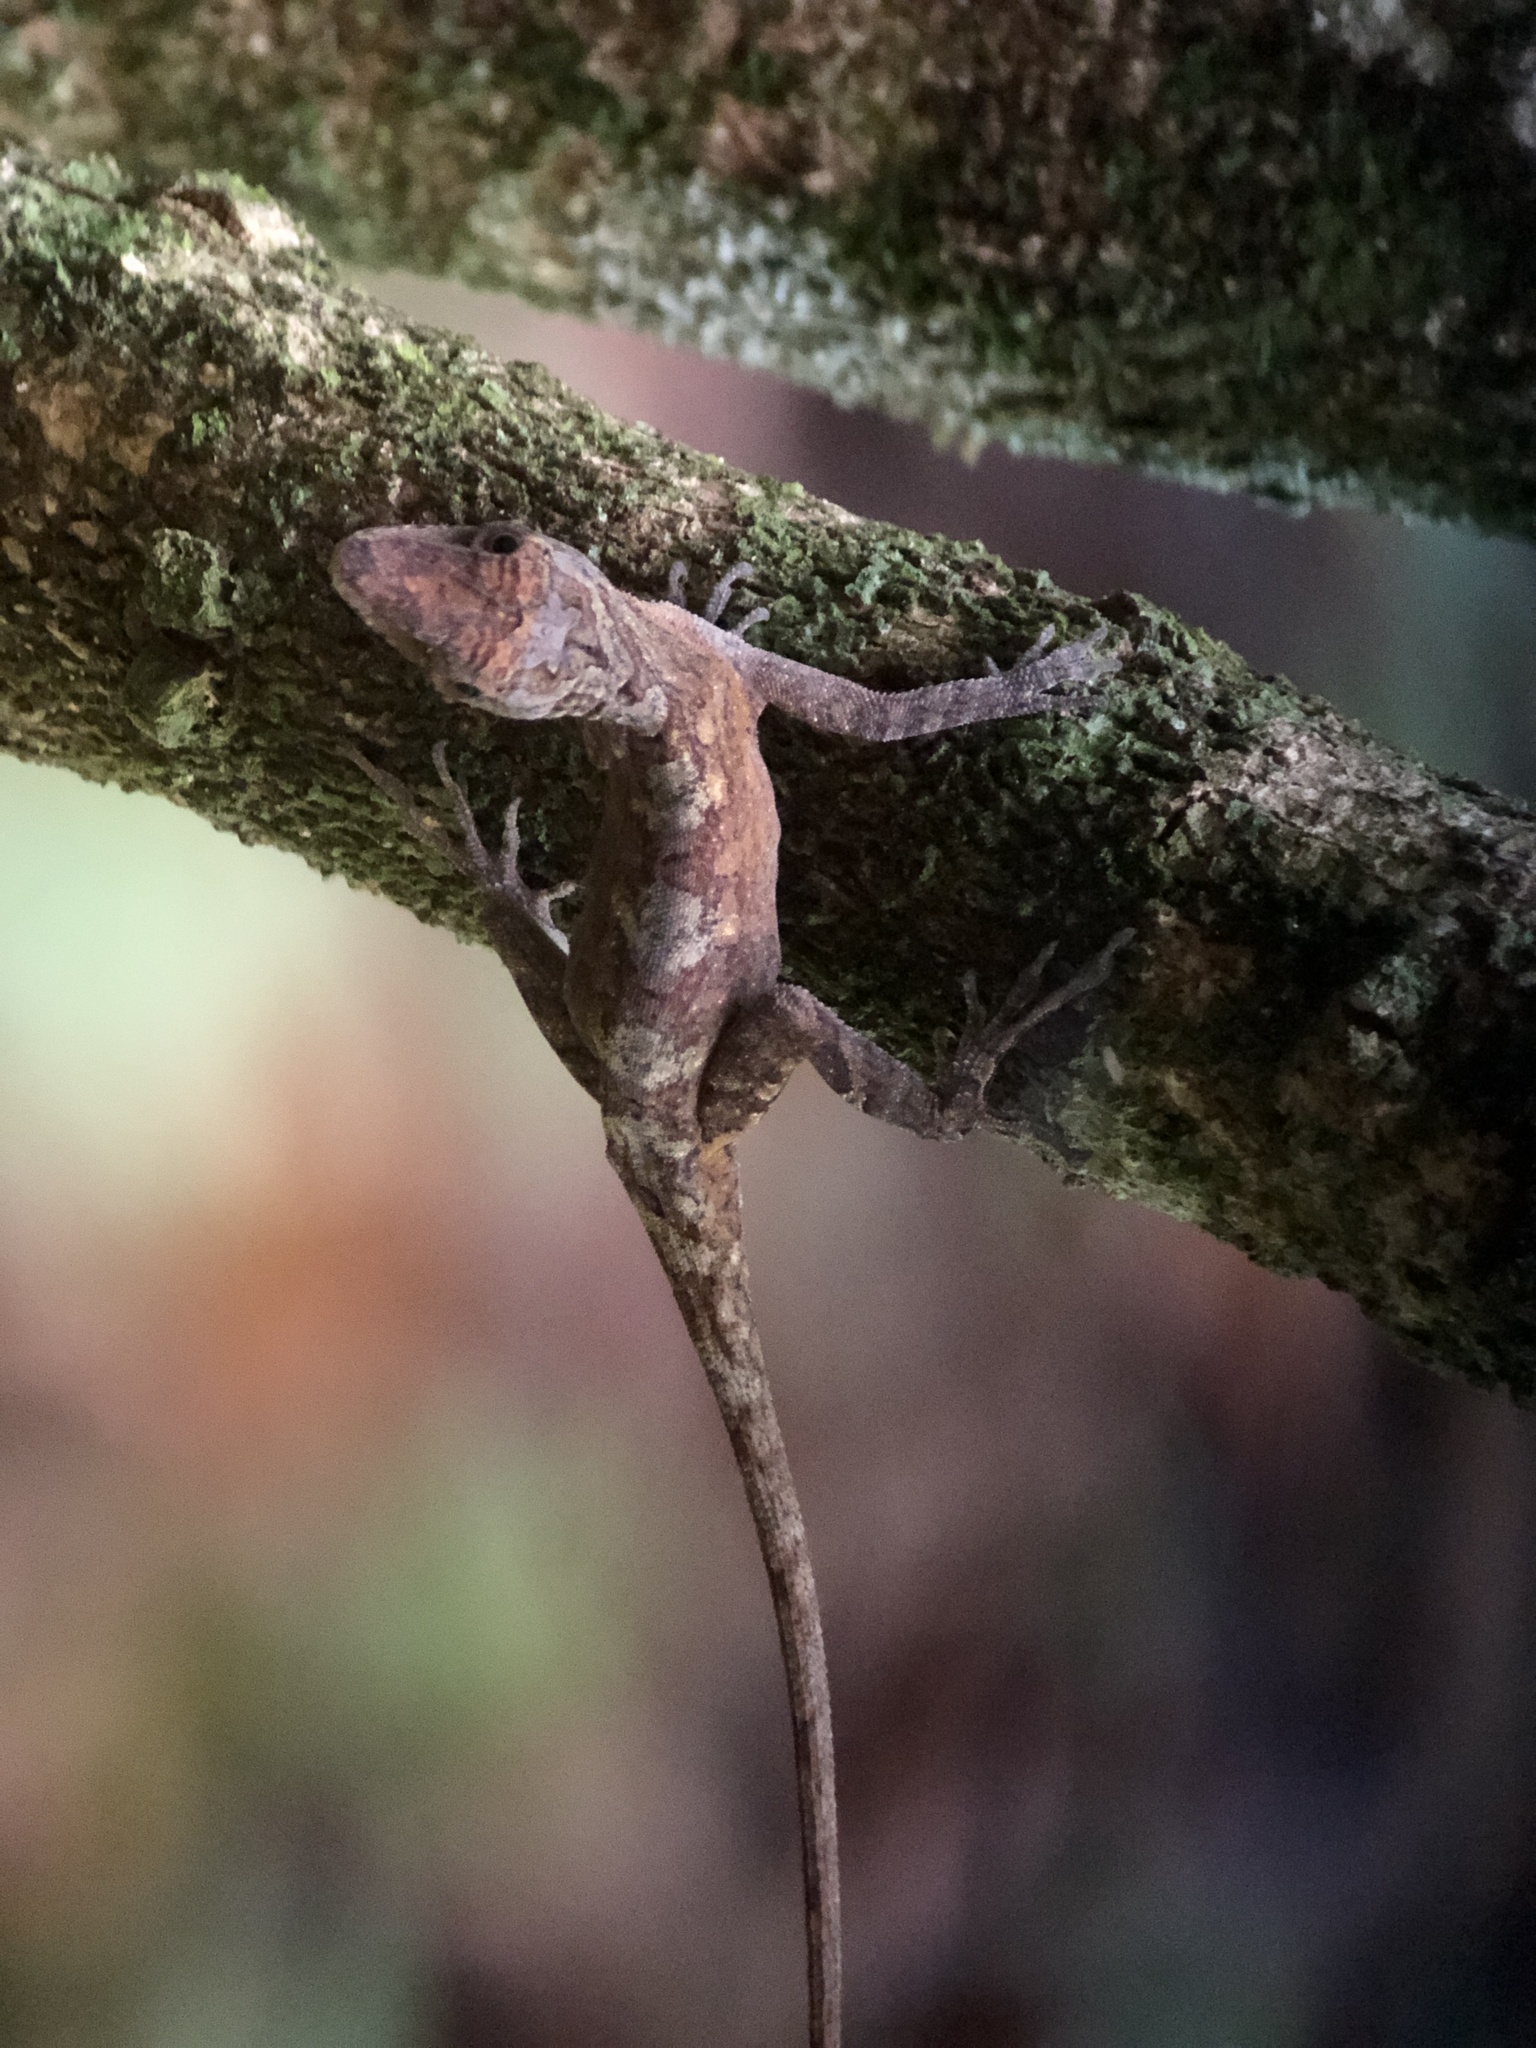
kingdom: Animalia
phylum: Chordata
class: Squamata
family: Dactyloidae
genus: Anolis
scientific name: Anolis lemurinus
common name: Ghost anole
